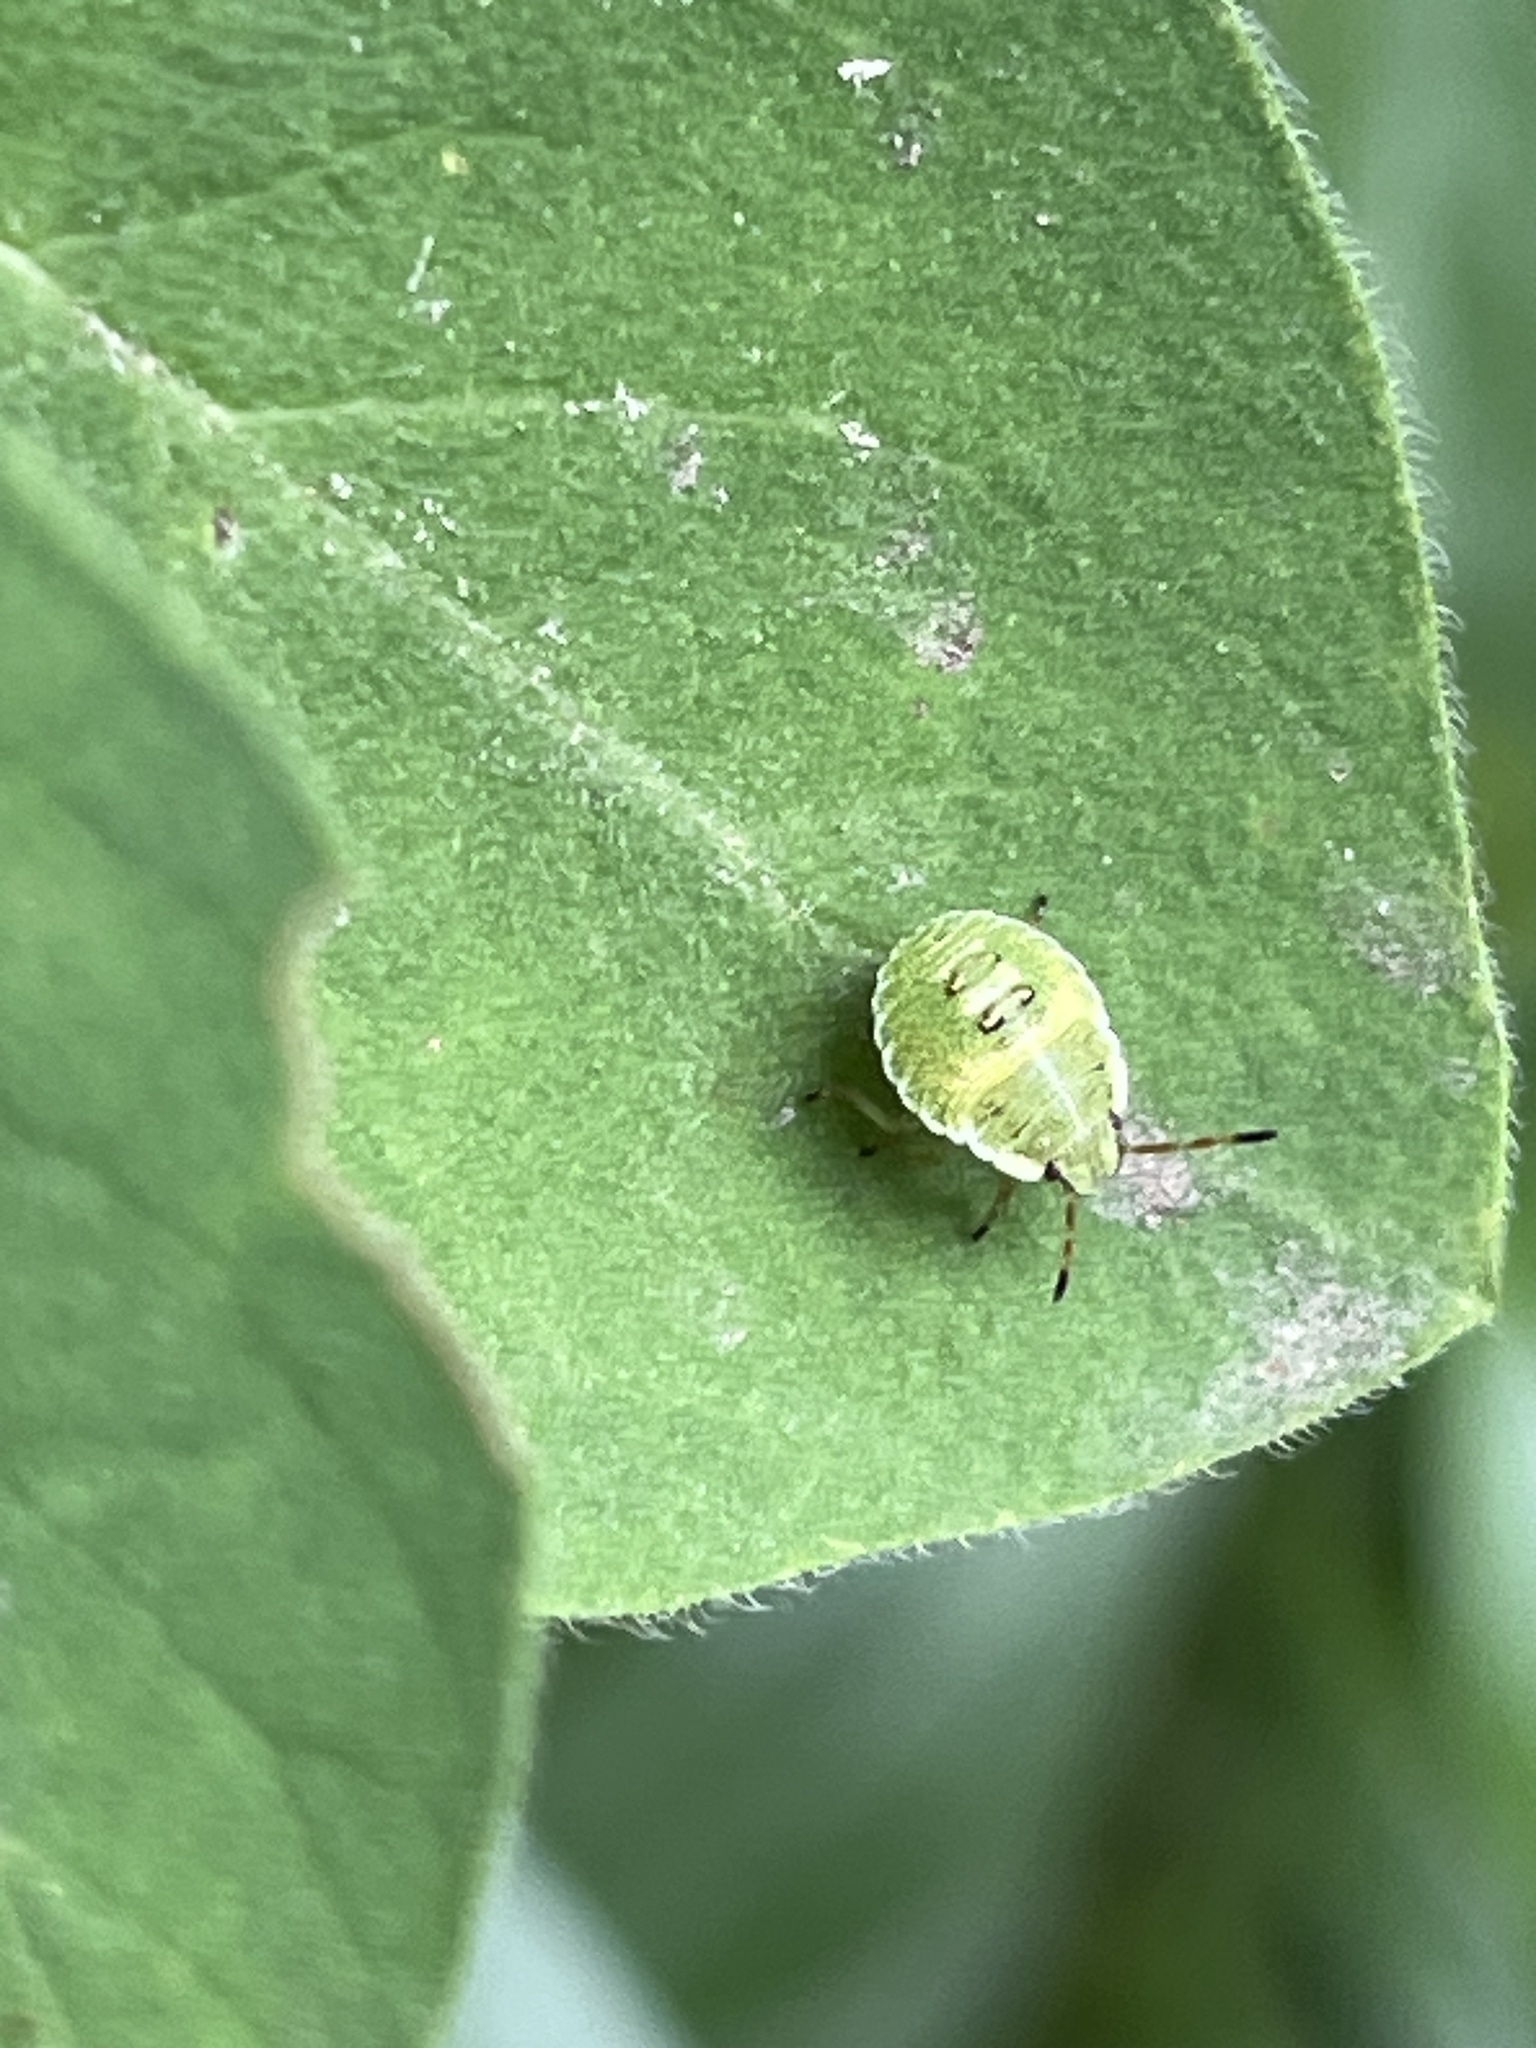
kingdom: Animalia
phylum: Arthropoda
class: Insecta
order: Hemiptera
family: Pentatomidae
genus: Palomena
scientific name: Palomena prasina
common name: Green shieldbug
